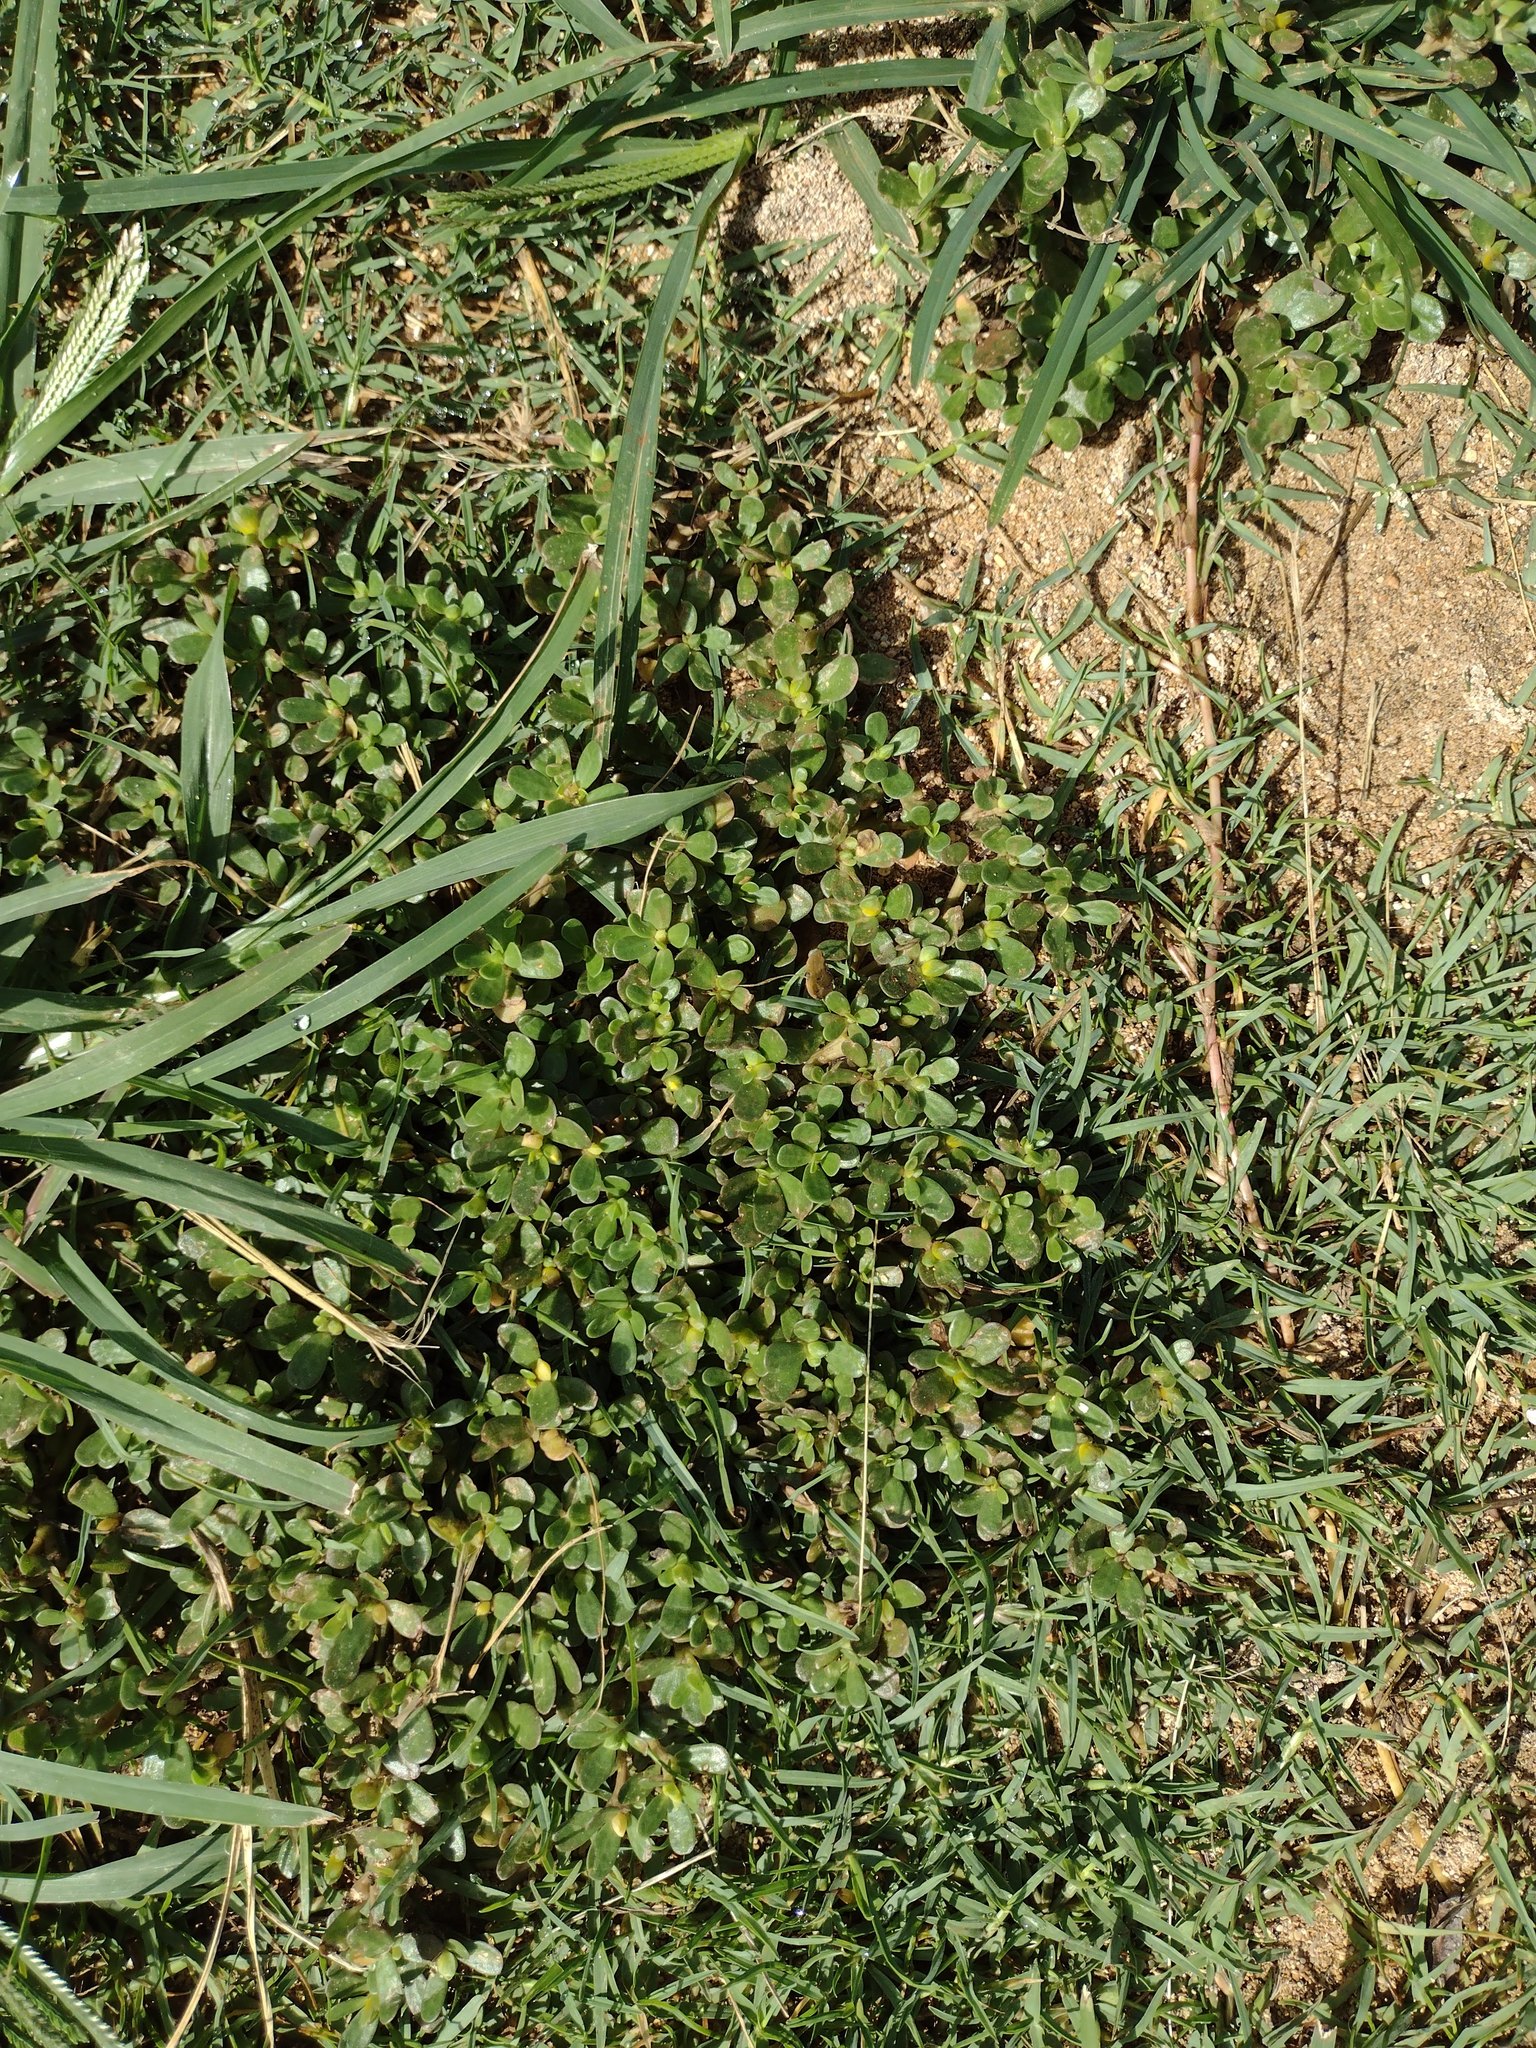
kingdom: Plantae
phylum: Tracheophyta
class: Magnoliopsida
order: Caryophyllales
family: Portulacaceae
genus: Portulaca
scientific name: Portulaca oleracea
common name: Common purslane
